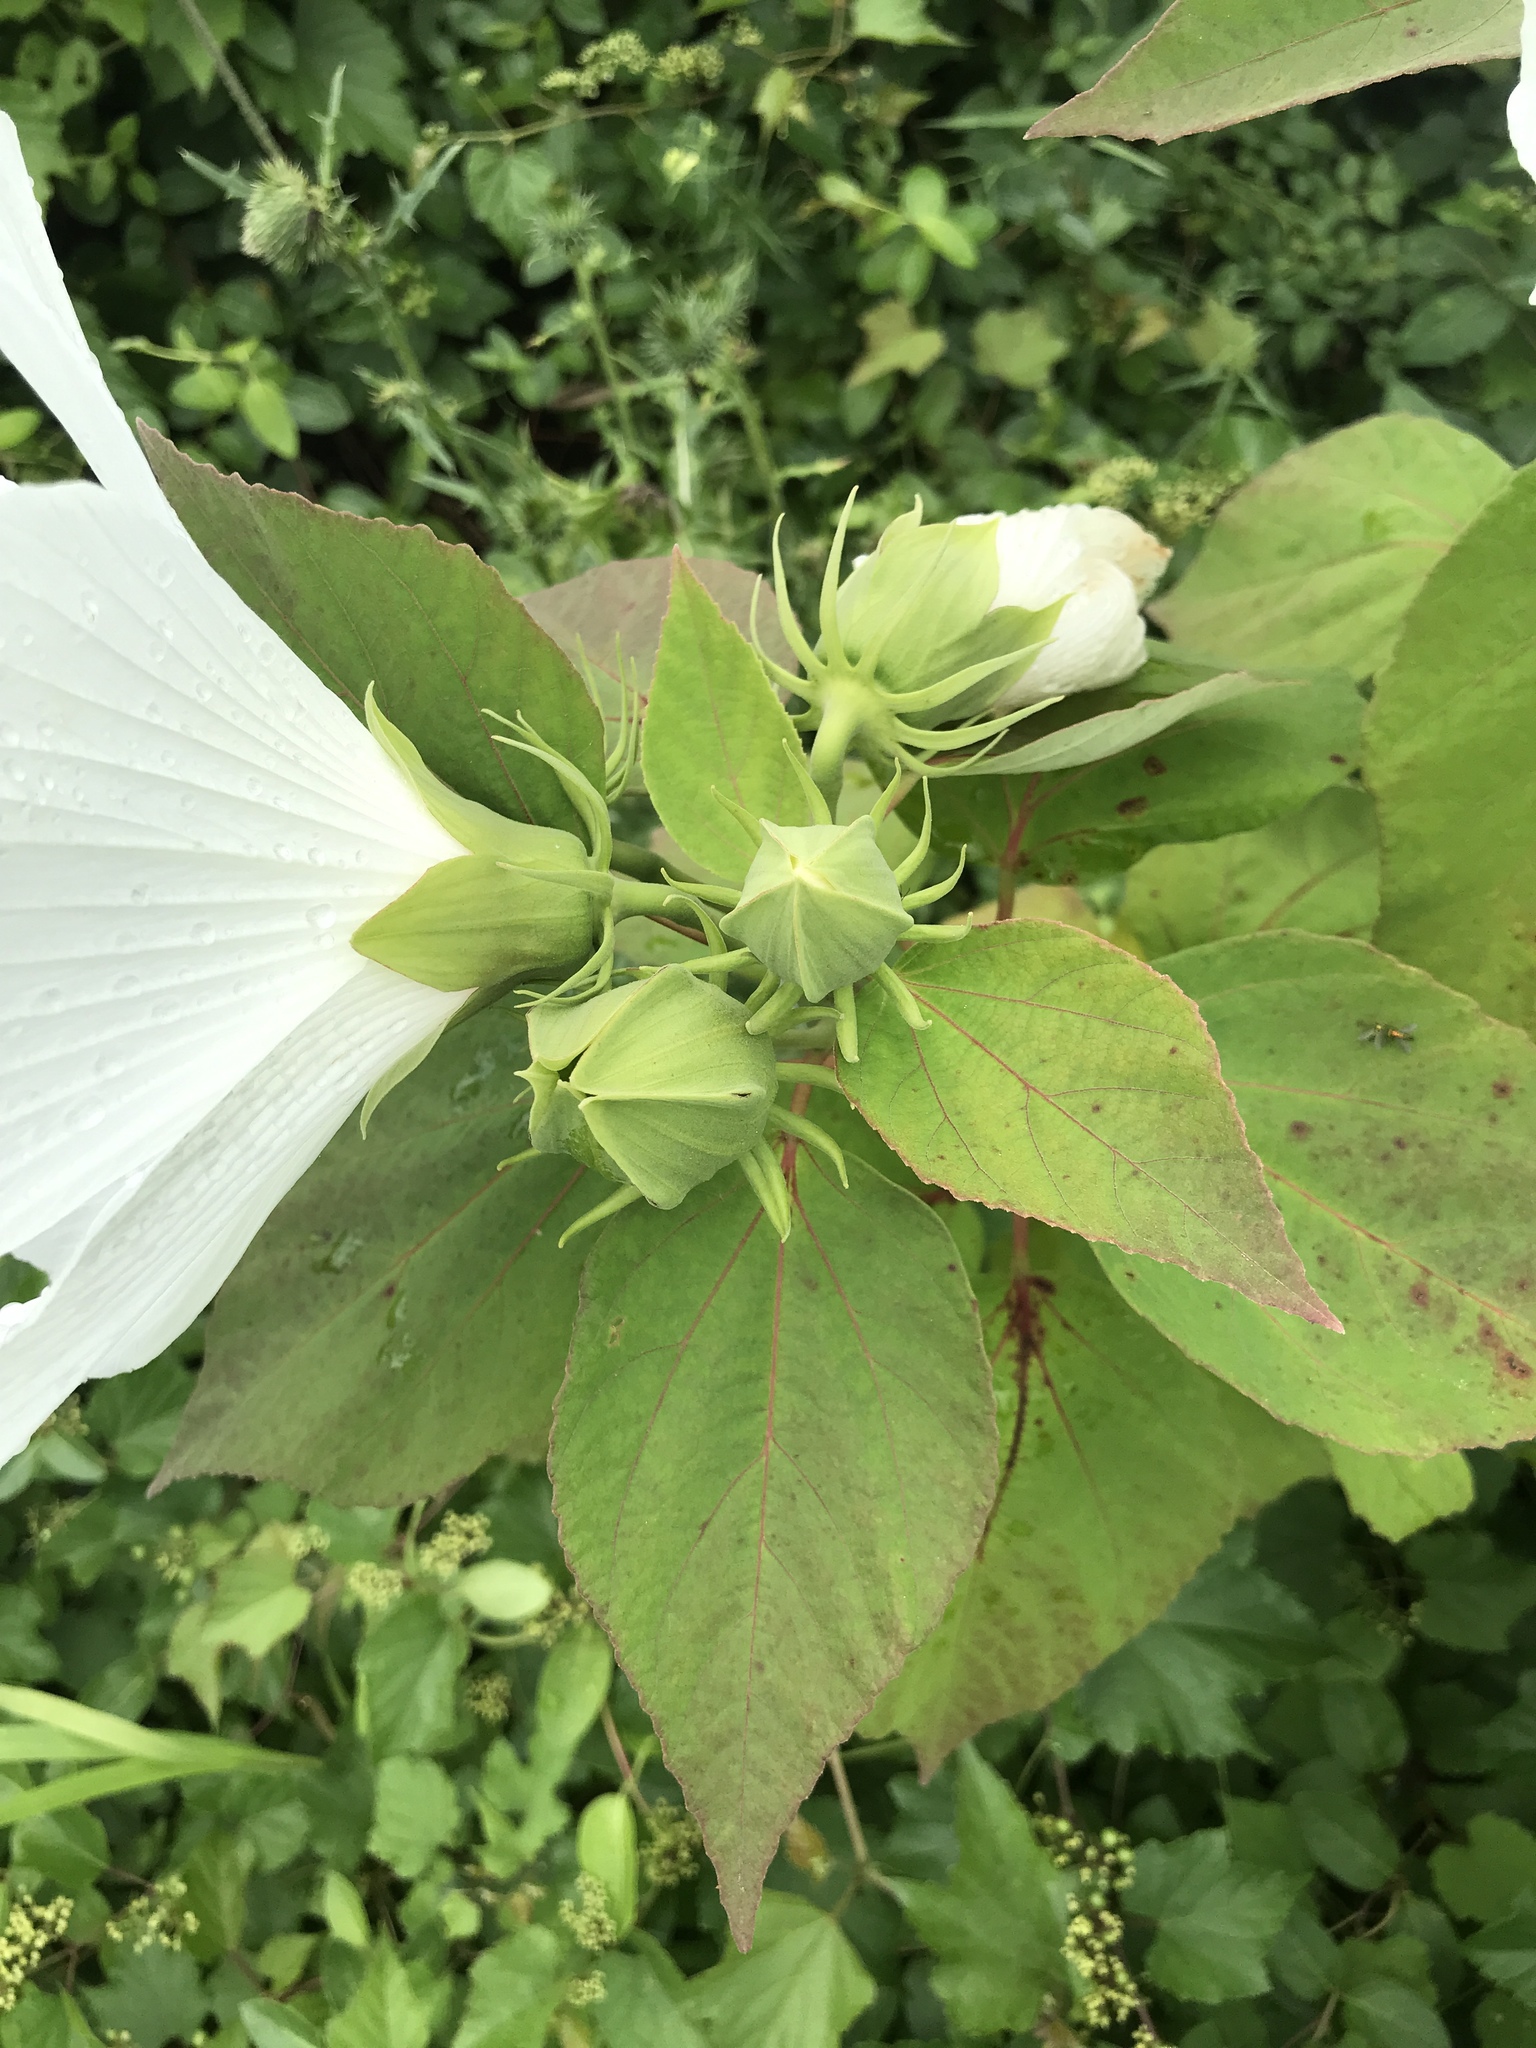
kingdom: Plantae
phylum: Tracheophyta
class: Magnoliopsida
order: Malvales
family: Malvaceae
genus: Hibiscus
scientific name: Hibiscus moscheutos
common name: Common rose-mallow
